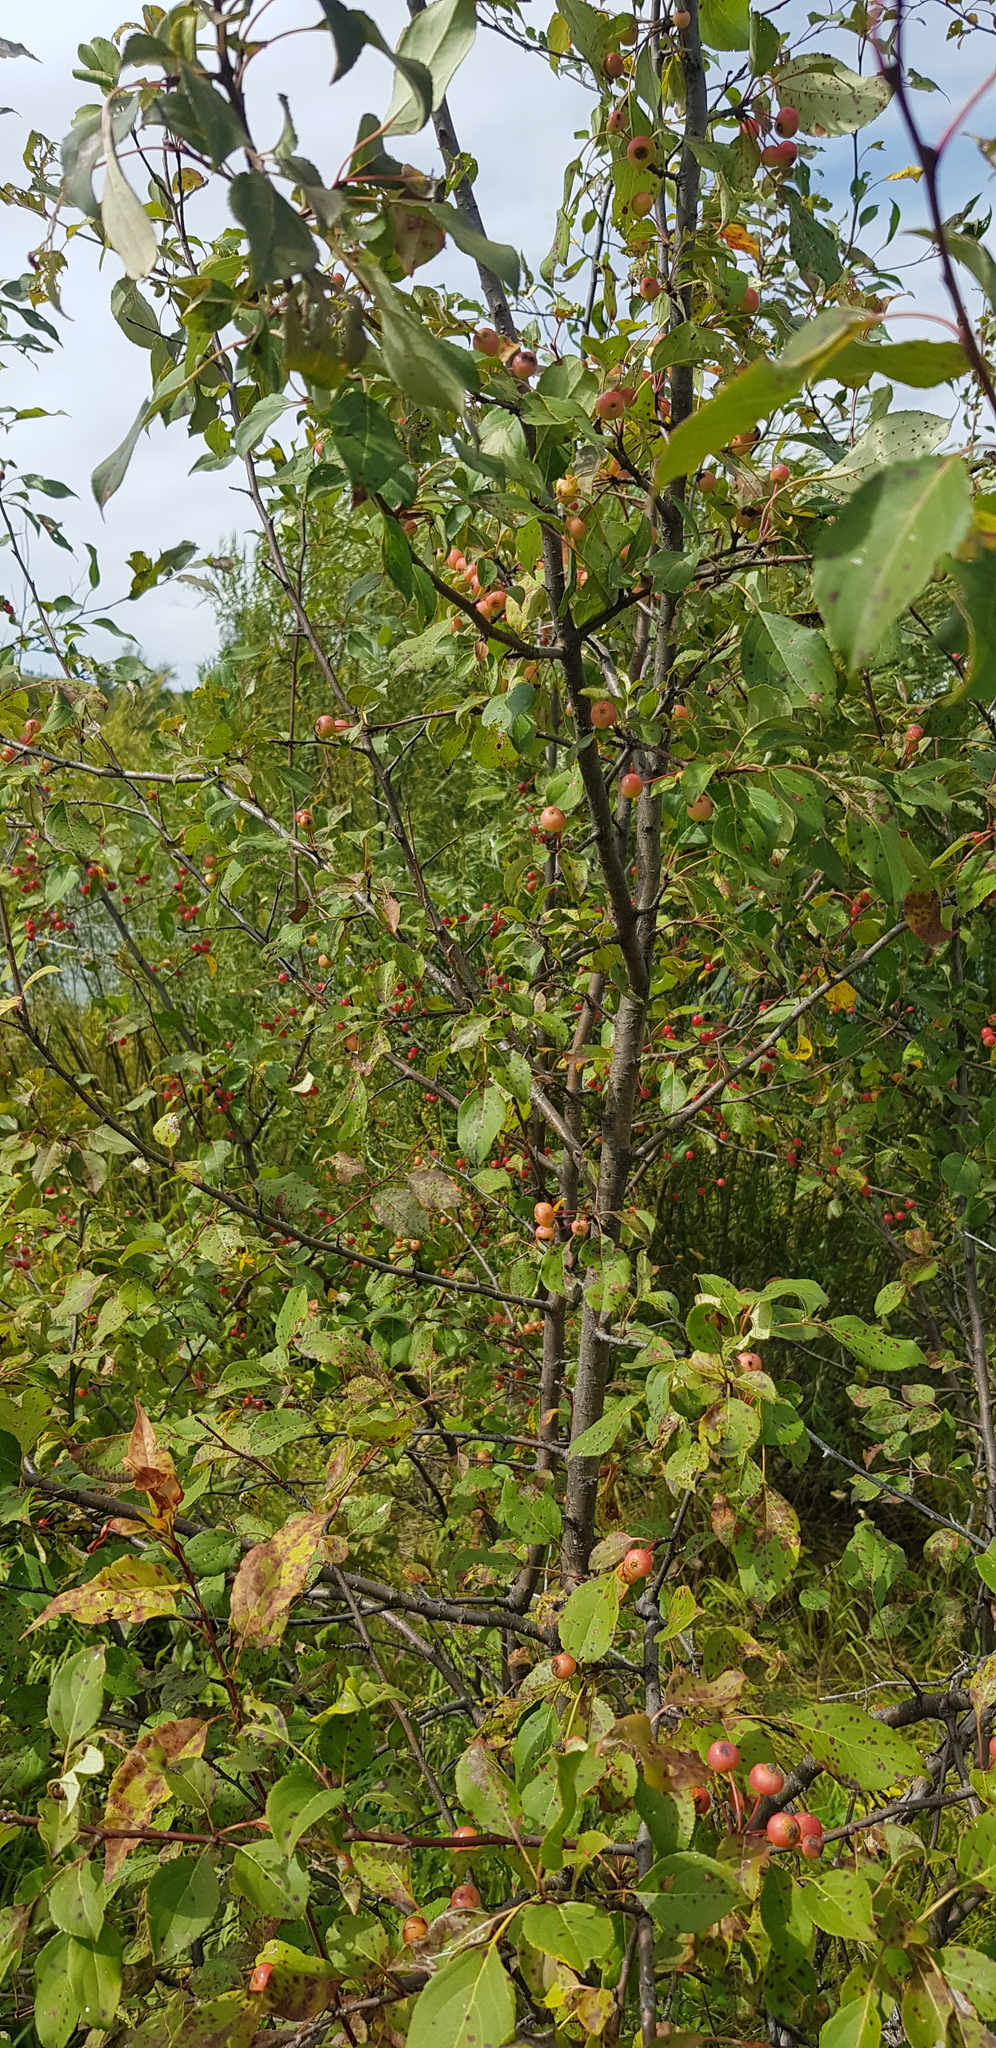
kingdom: Plantae
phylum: Tracheophyta
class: Magnoliopsida
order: Rosales
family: Rosaceae
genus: Malus
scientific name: Malus baccata
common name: Siberian crab
